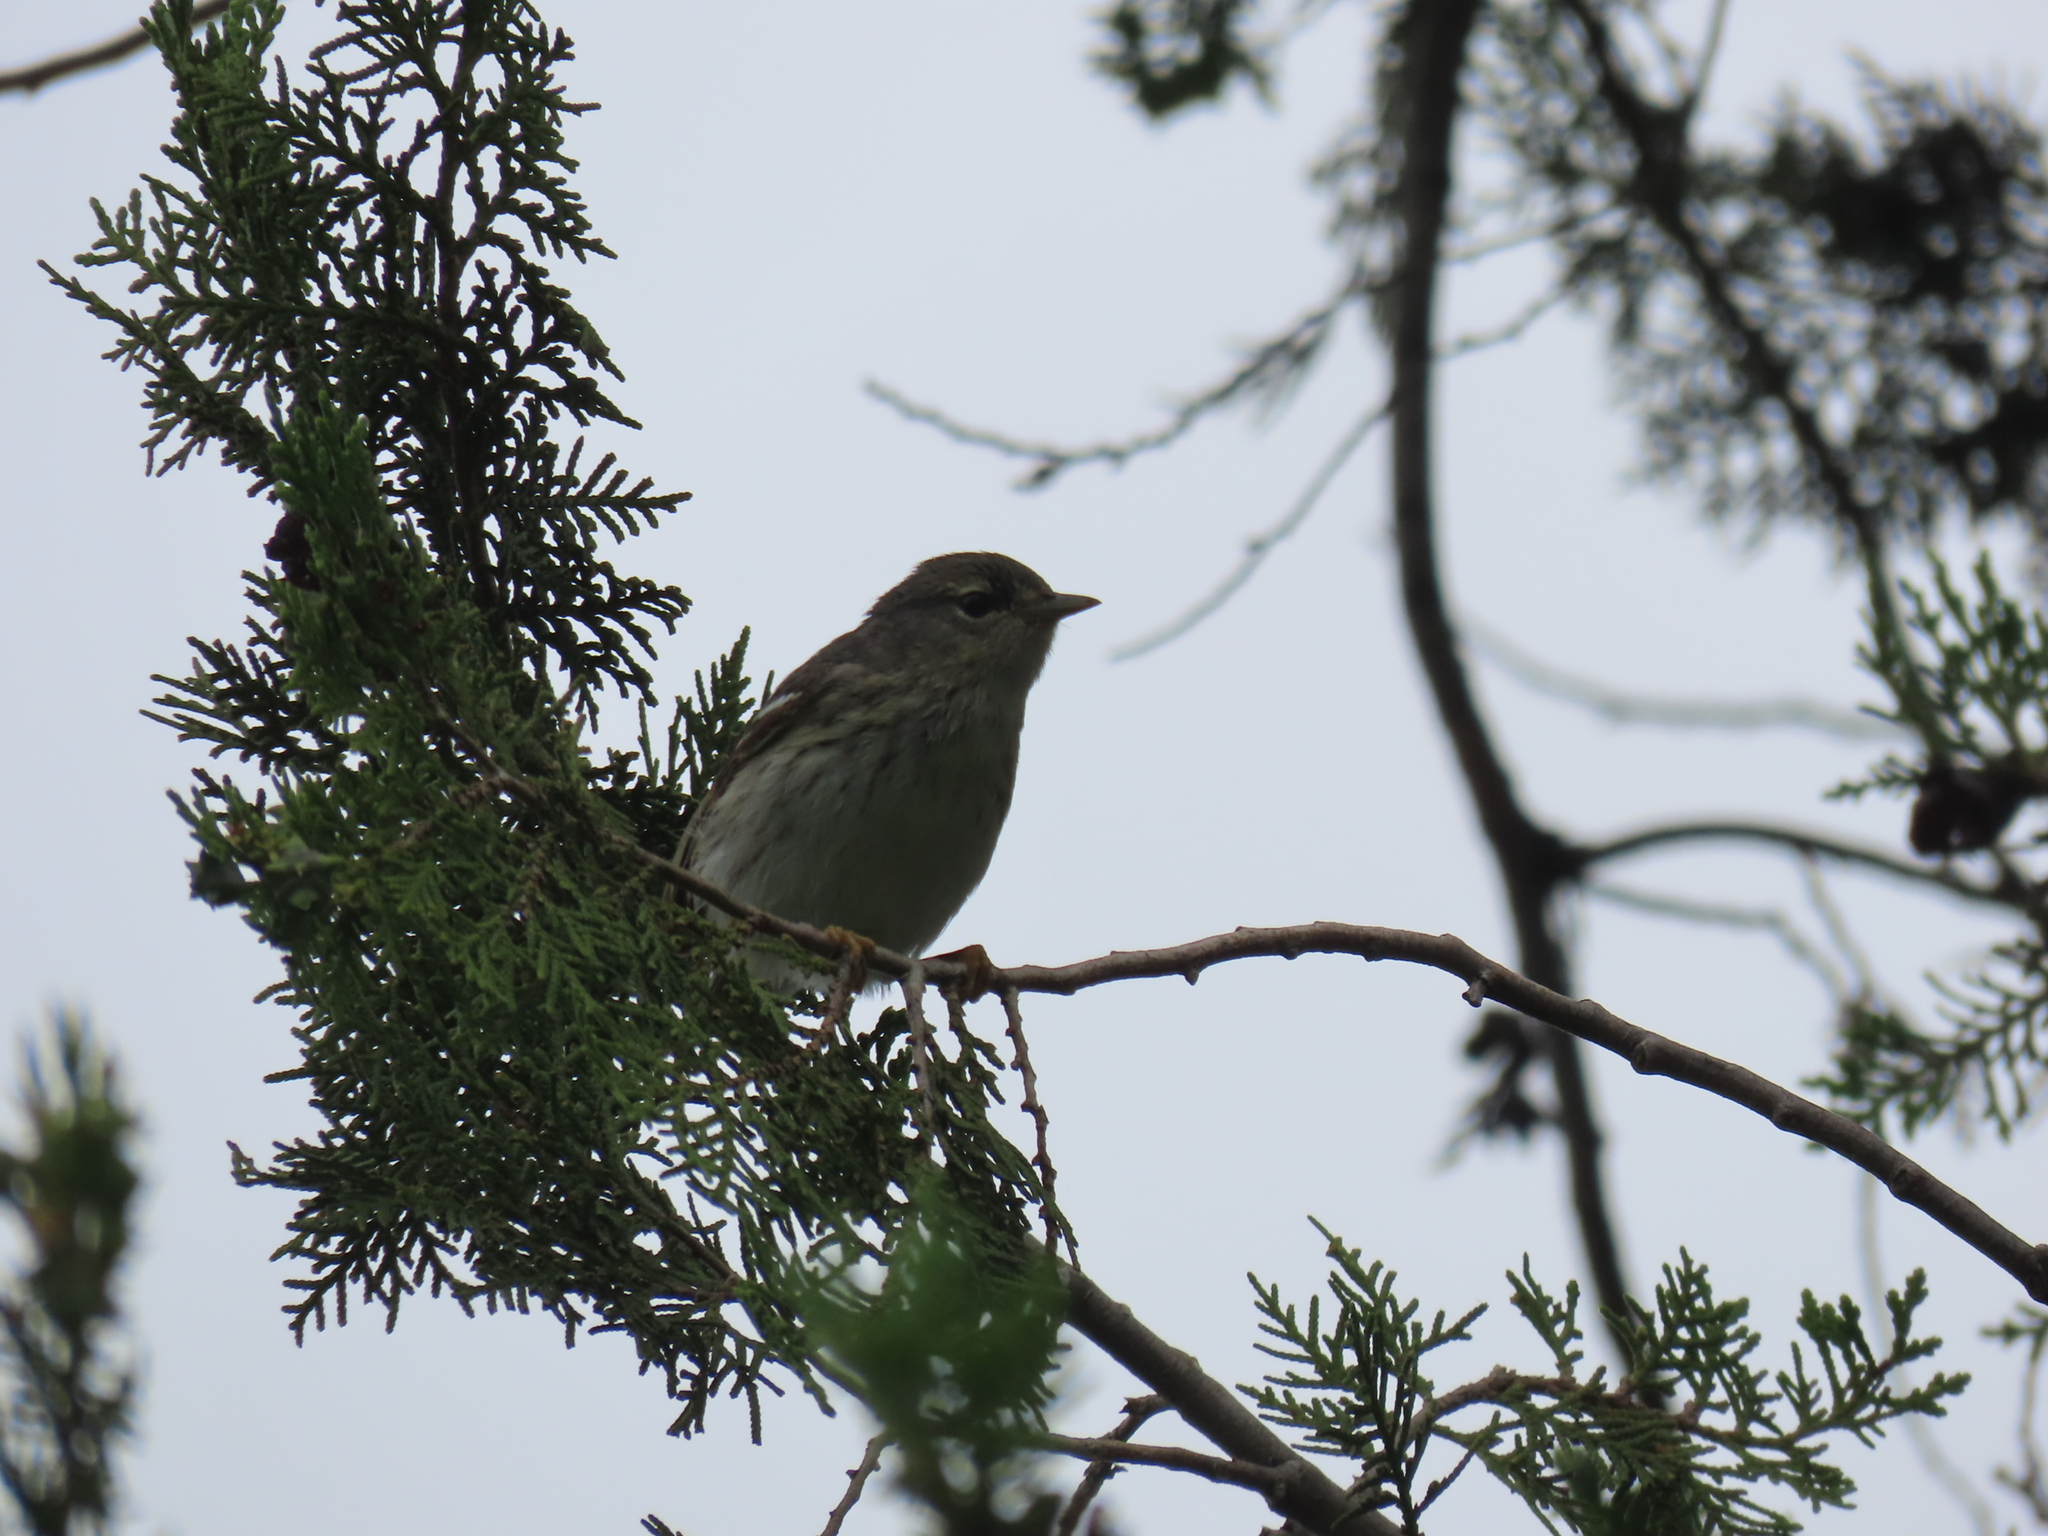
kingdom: Animalia
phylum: Chordata
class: Aves
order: Passeriformes
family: Parulidae
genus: Setophaga
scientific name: Setophaga striata
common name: Blackpoll warbler
